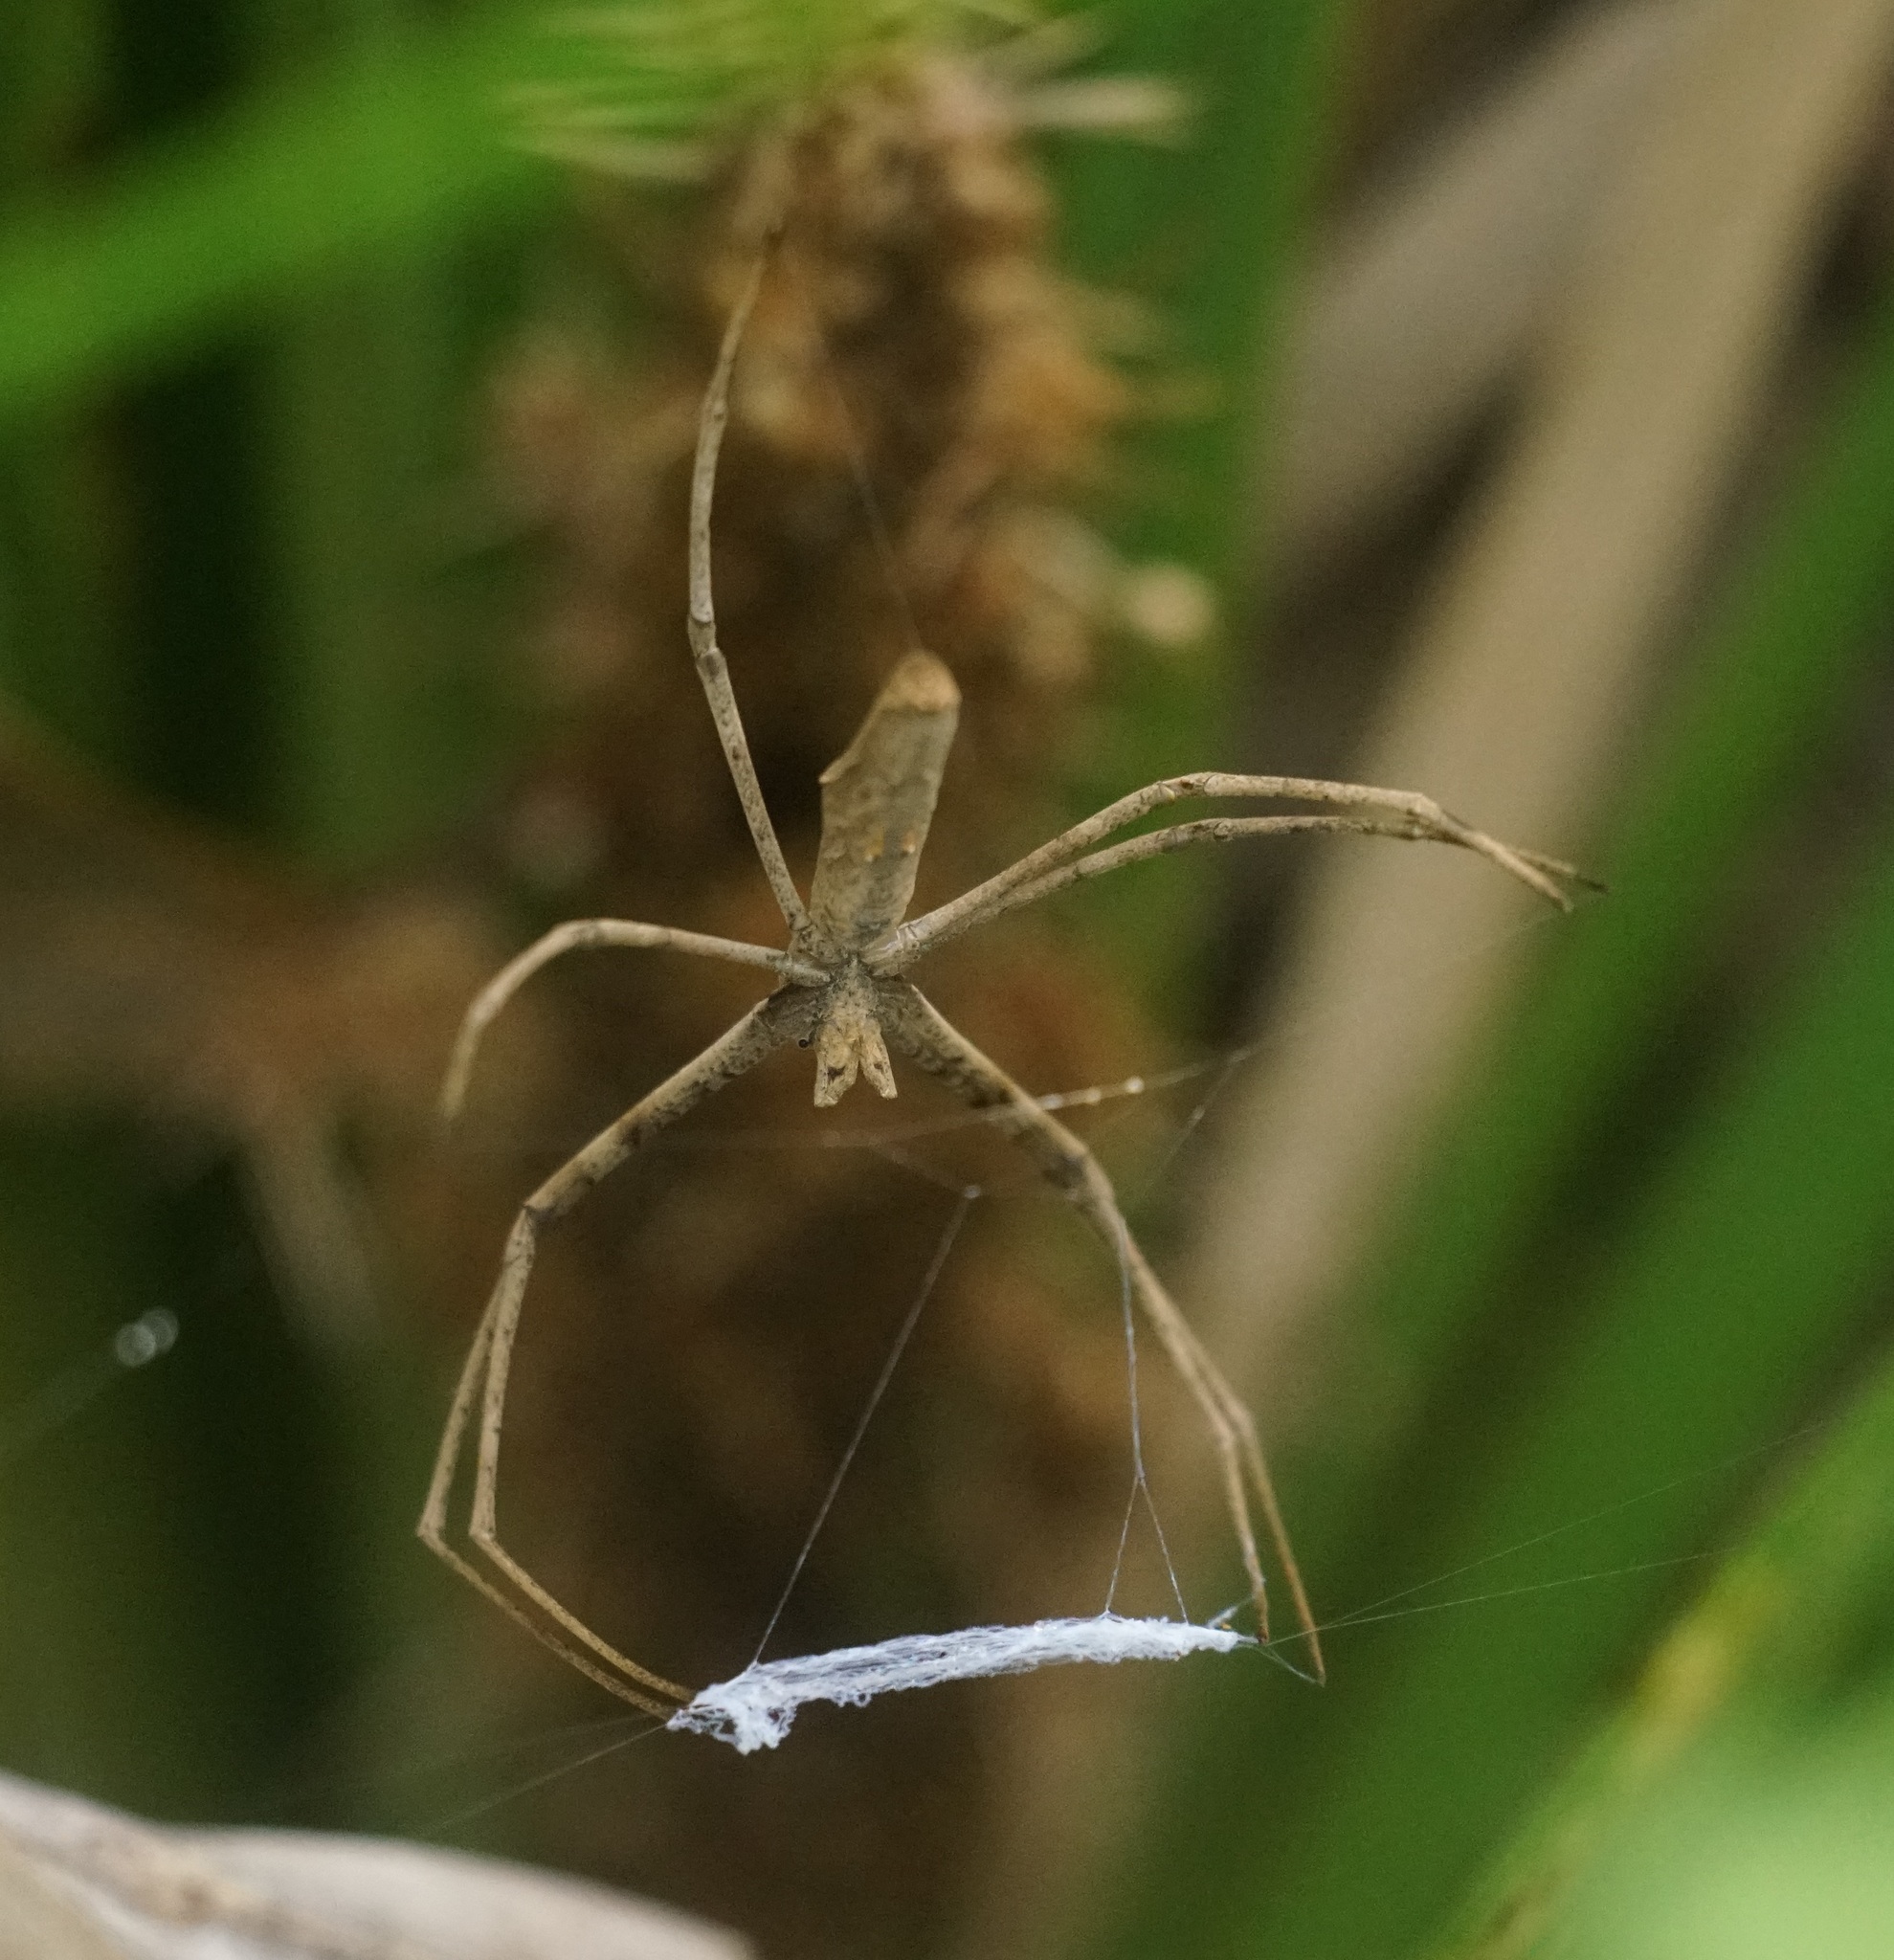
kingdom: Animalia
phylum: Arthropoda
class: Arachnida
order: Araneae
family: Deinopidae
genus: Deinopis
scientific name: Deinopis subrufa
